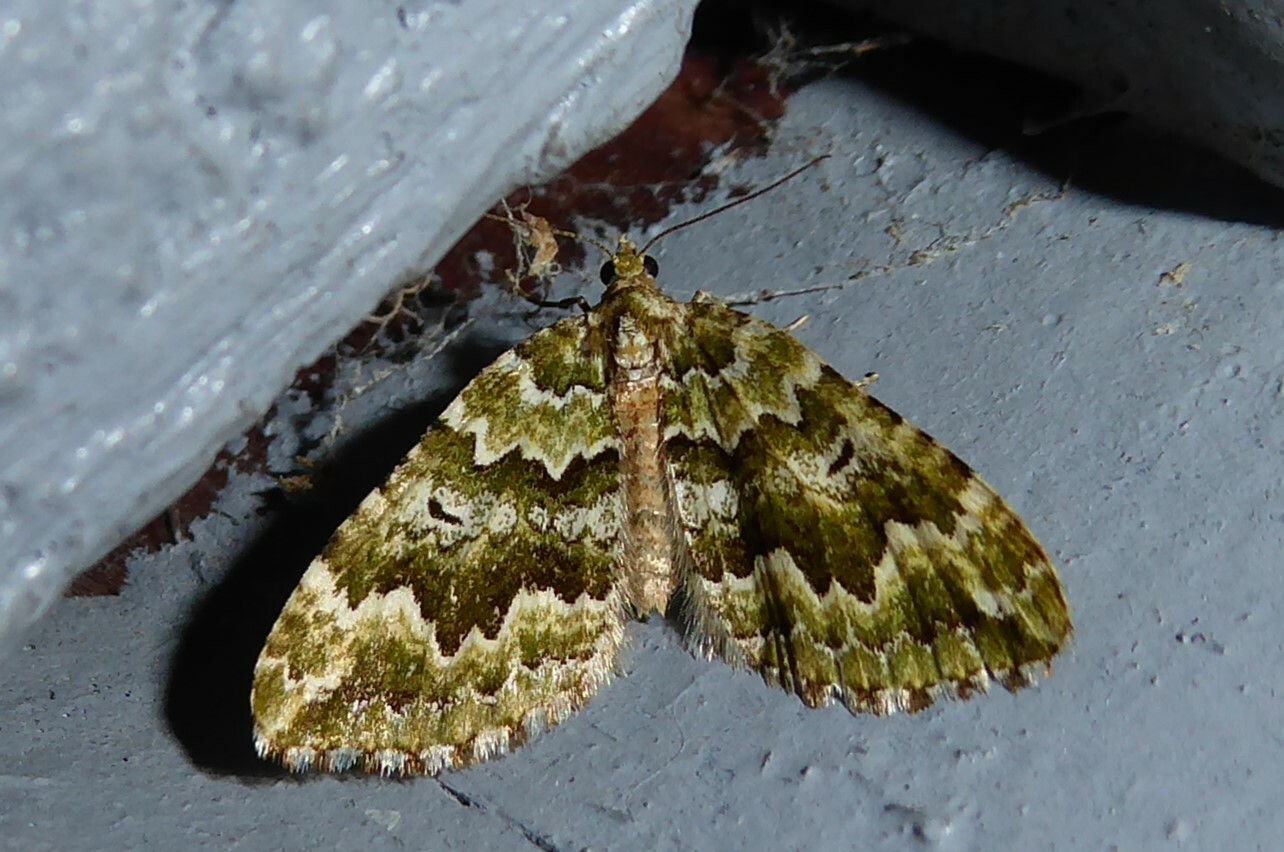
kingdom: Animalia
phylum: Arthropoda
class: Insecta
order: Lepidoptera
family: Geometridae
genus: Asaphodes
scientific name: Asaphodes beata
